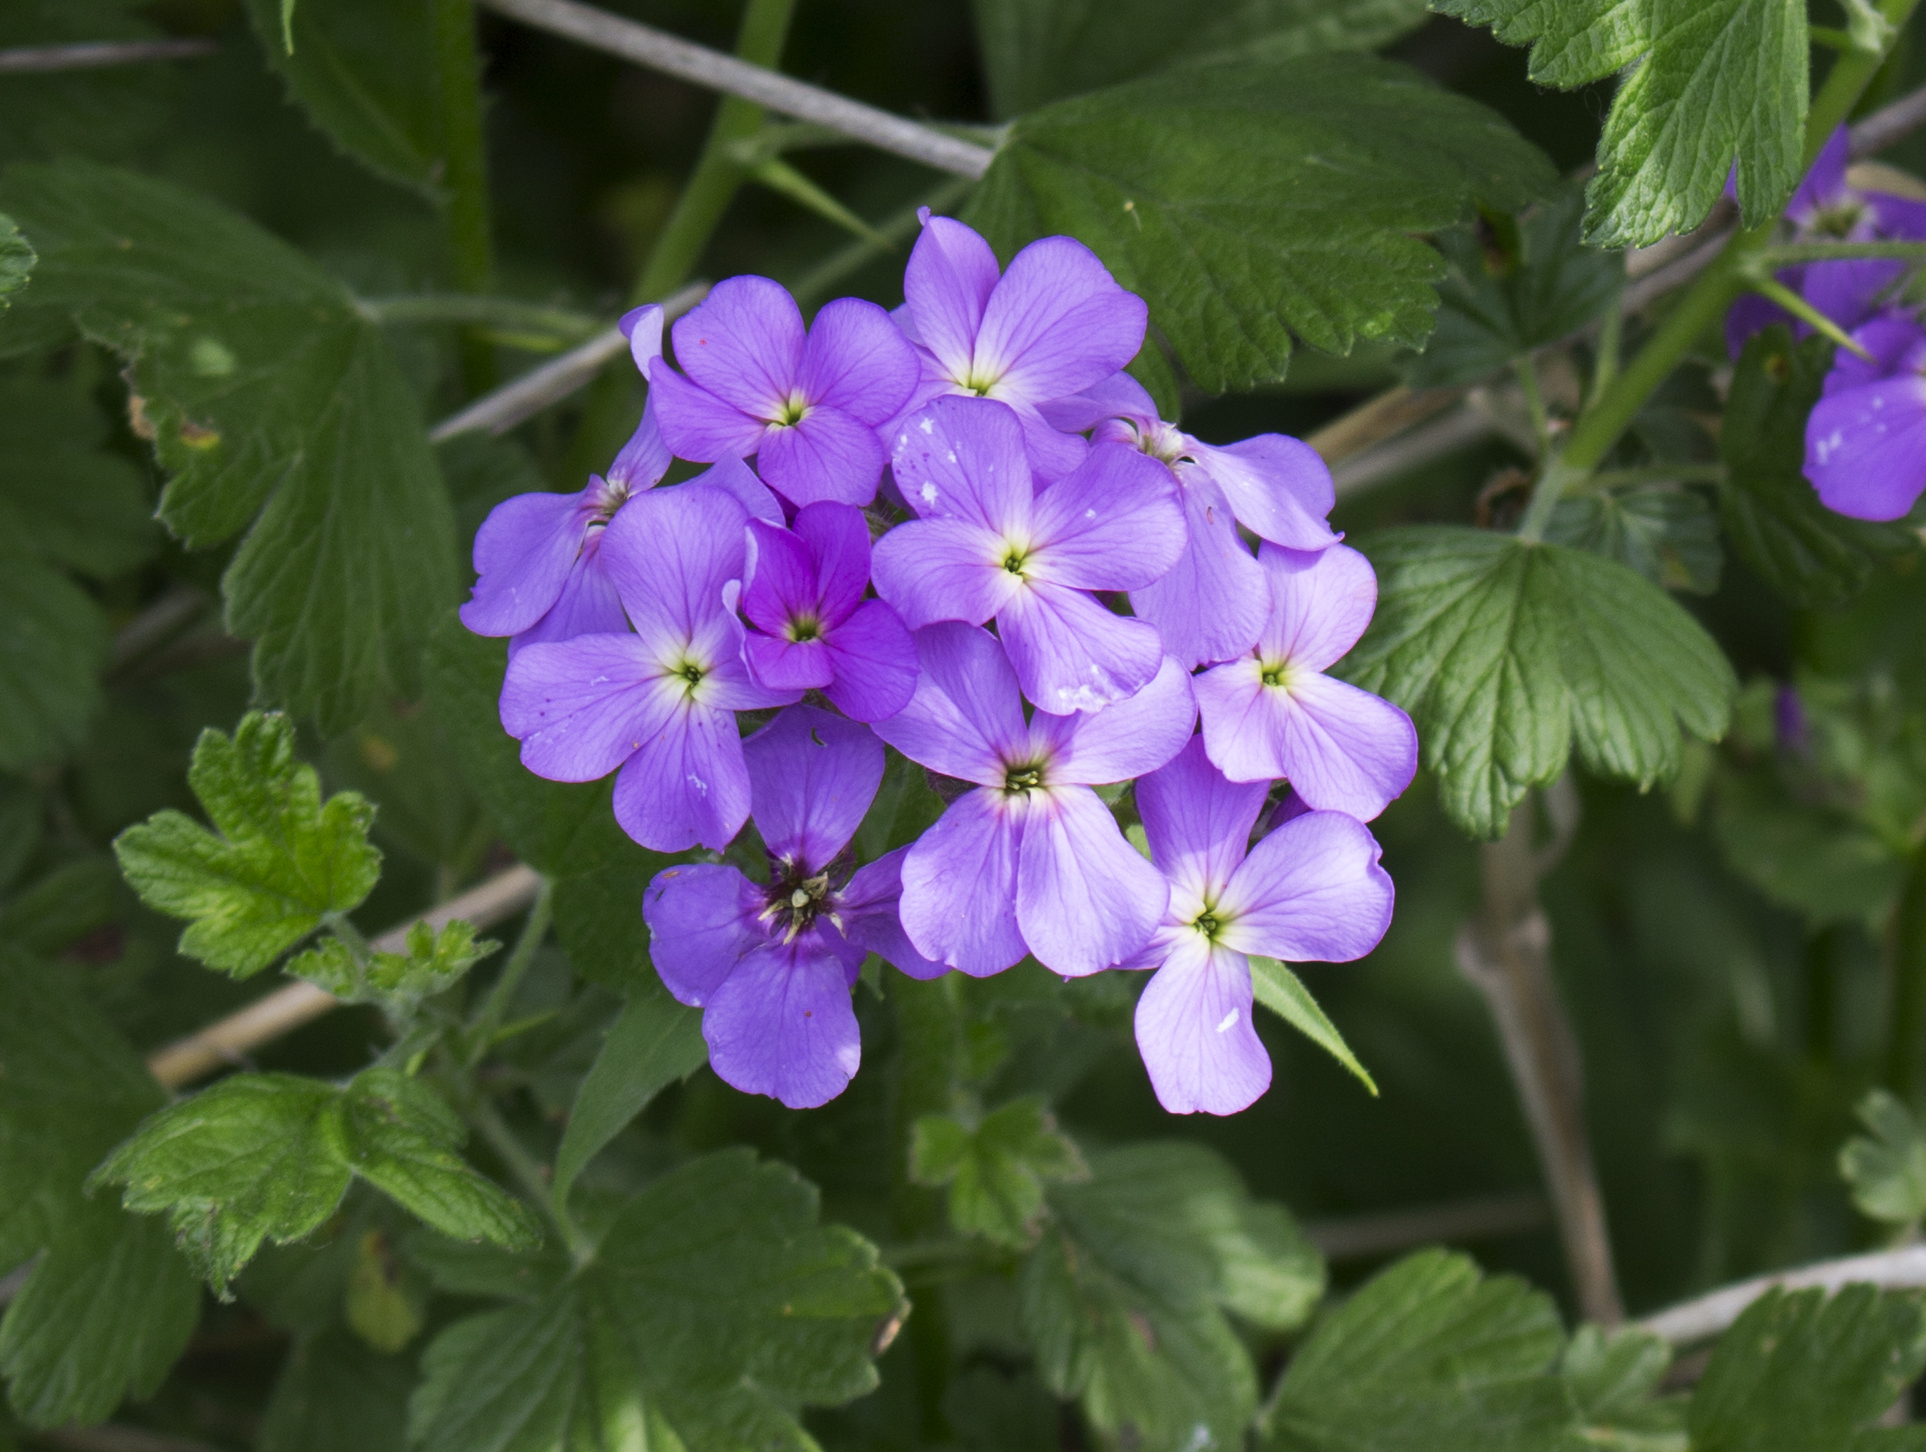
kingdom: Plantae
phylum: Tracheophyta
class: Magnoliopsida
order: Brassicales
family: Brassicaceae
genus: Hesperis
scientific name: Hesperis matronalis
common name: Dame's-violet
